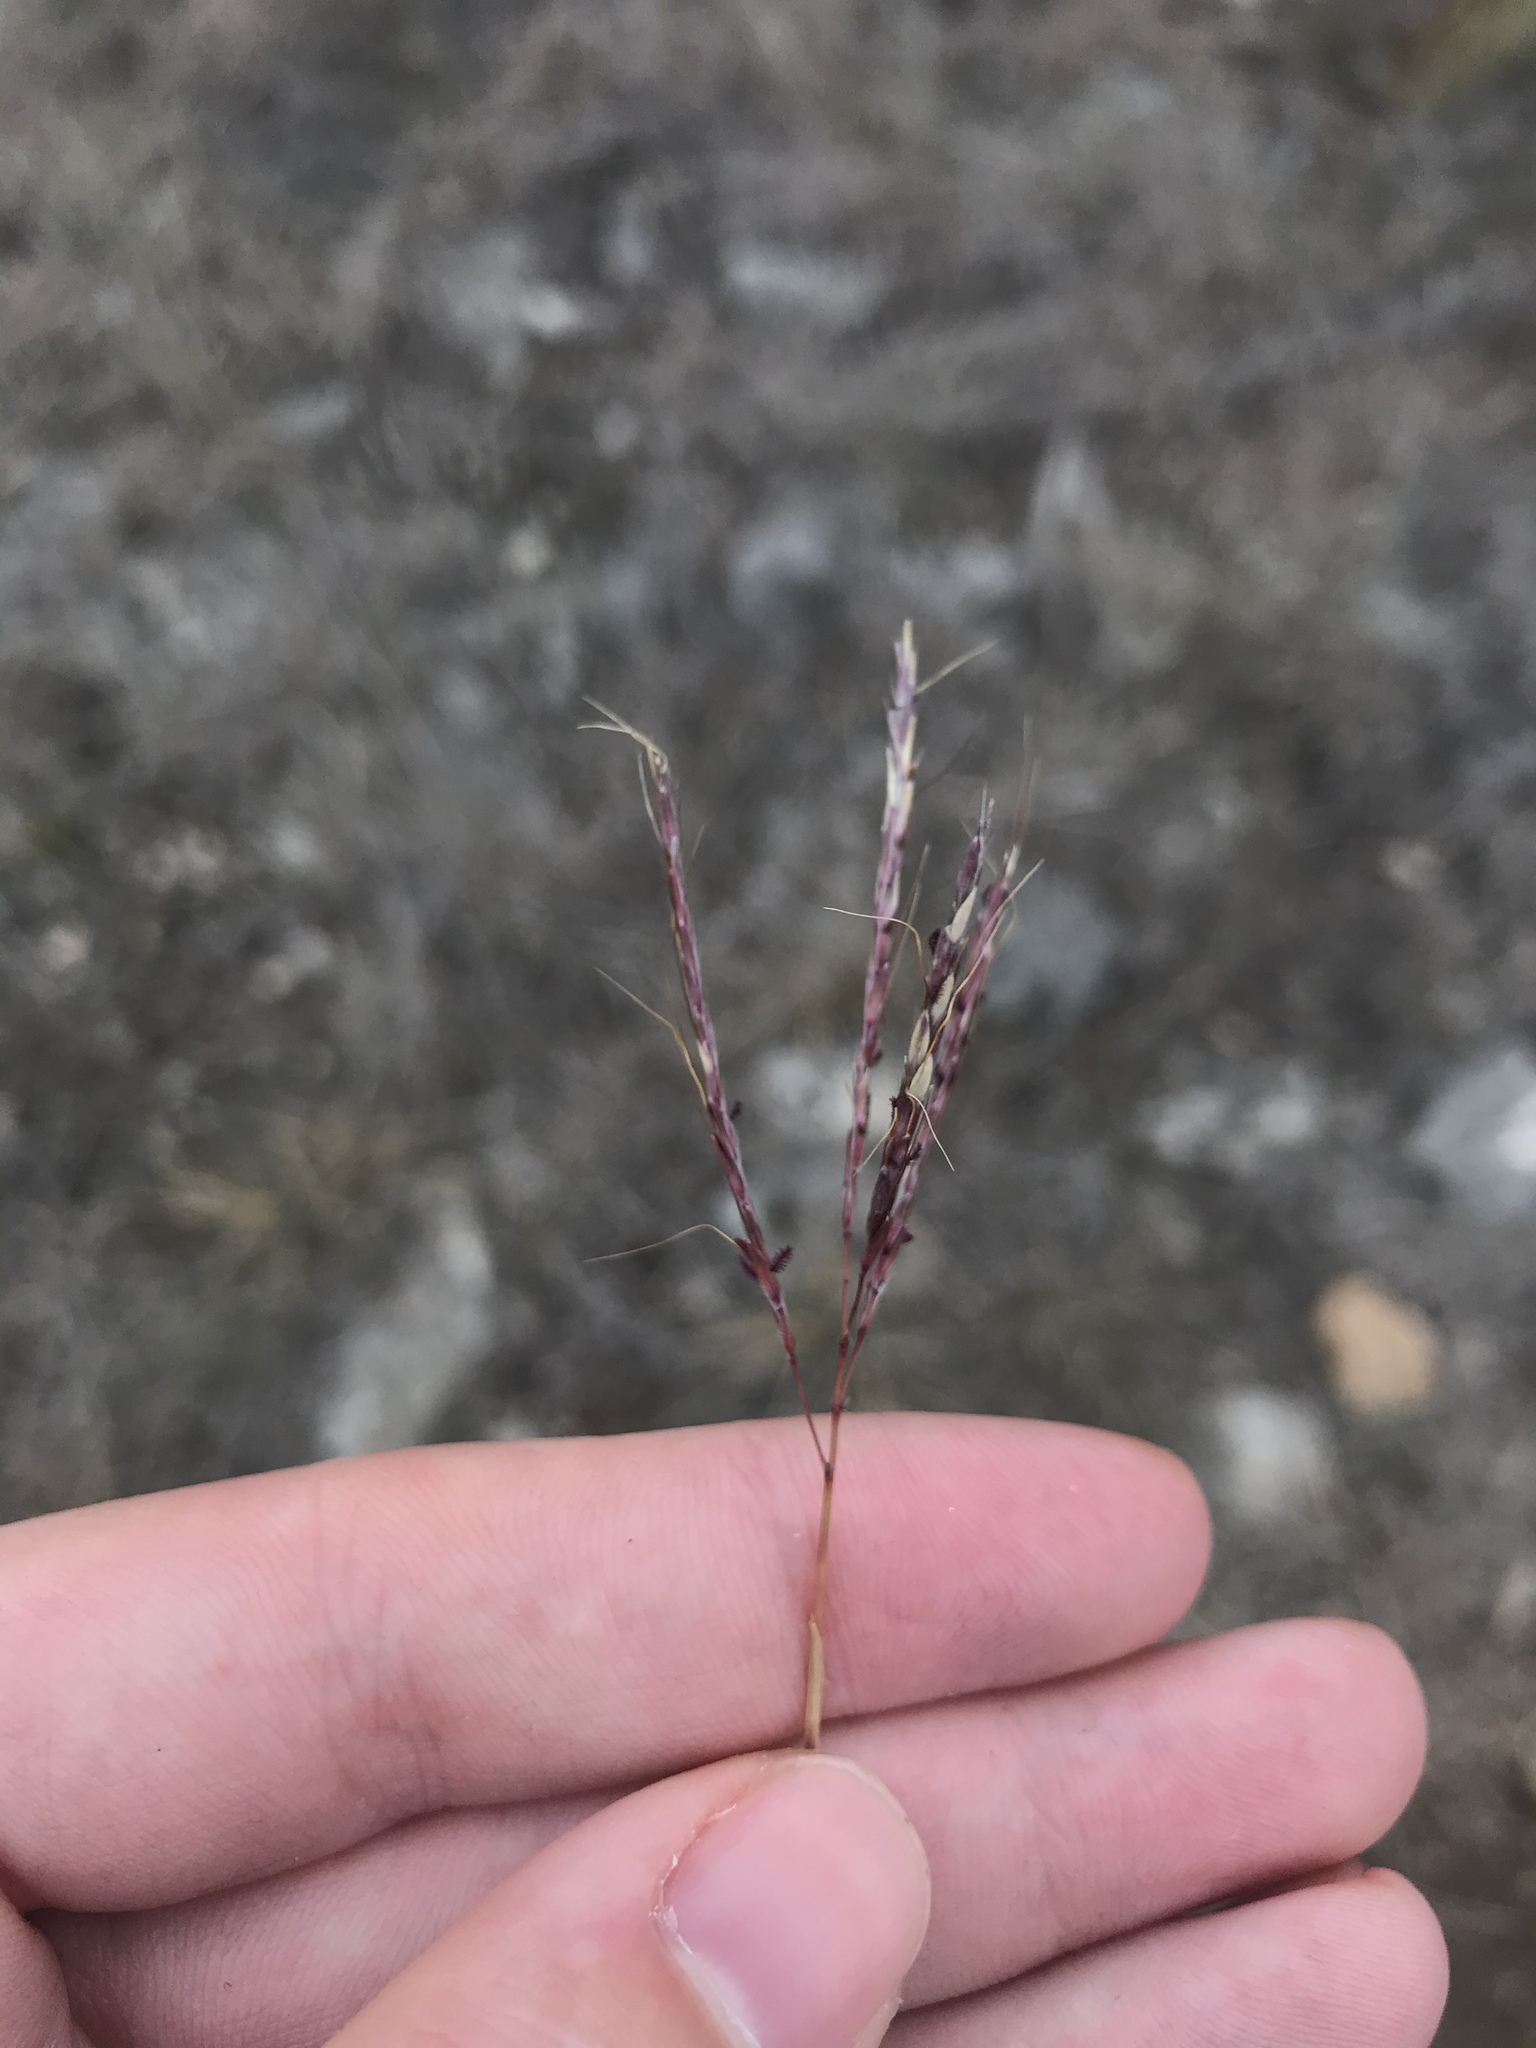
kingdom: Plantae
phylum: Tracheophyta
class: Liliopsida
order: Poales
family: Poaceae
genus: Bothriochloa
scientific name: Bothriochloa ischaemum
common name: Yellow bluestem
